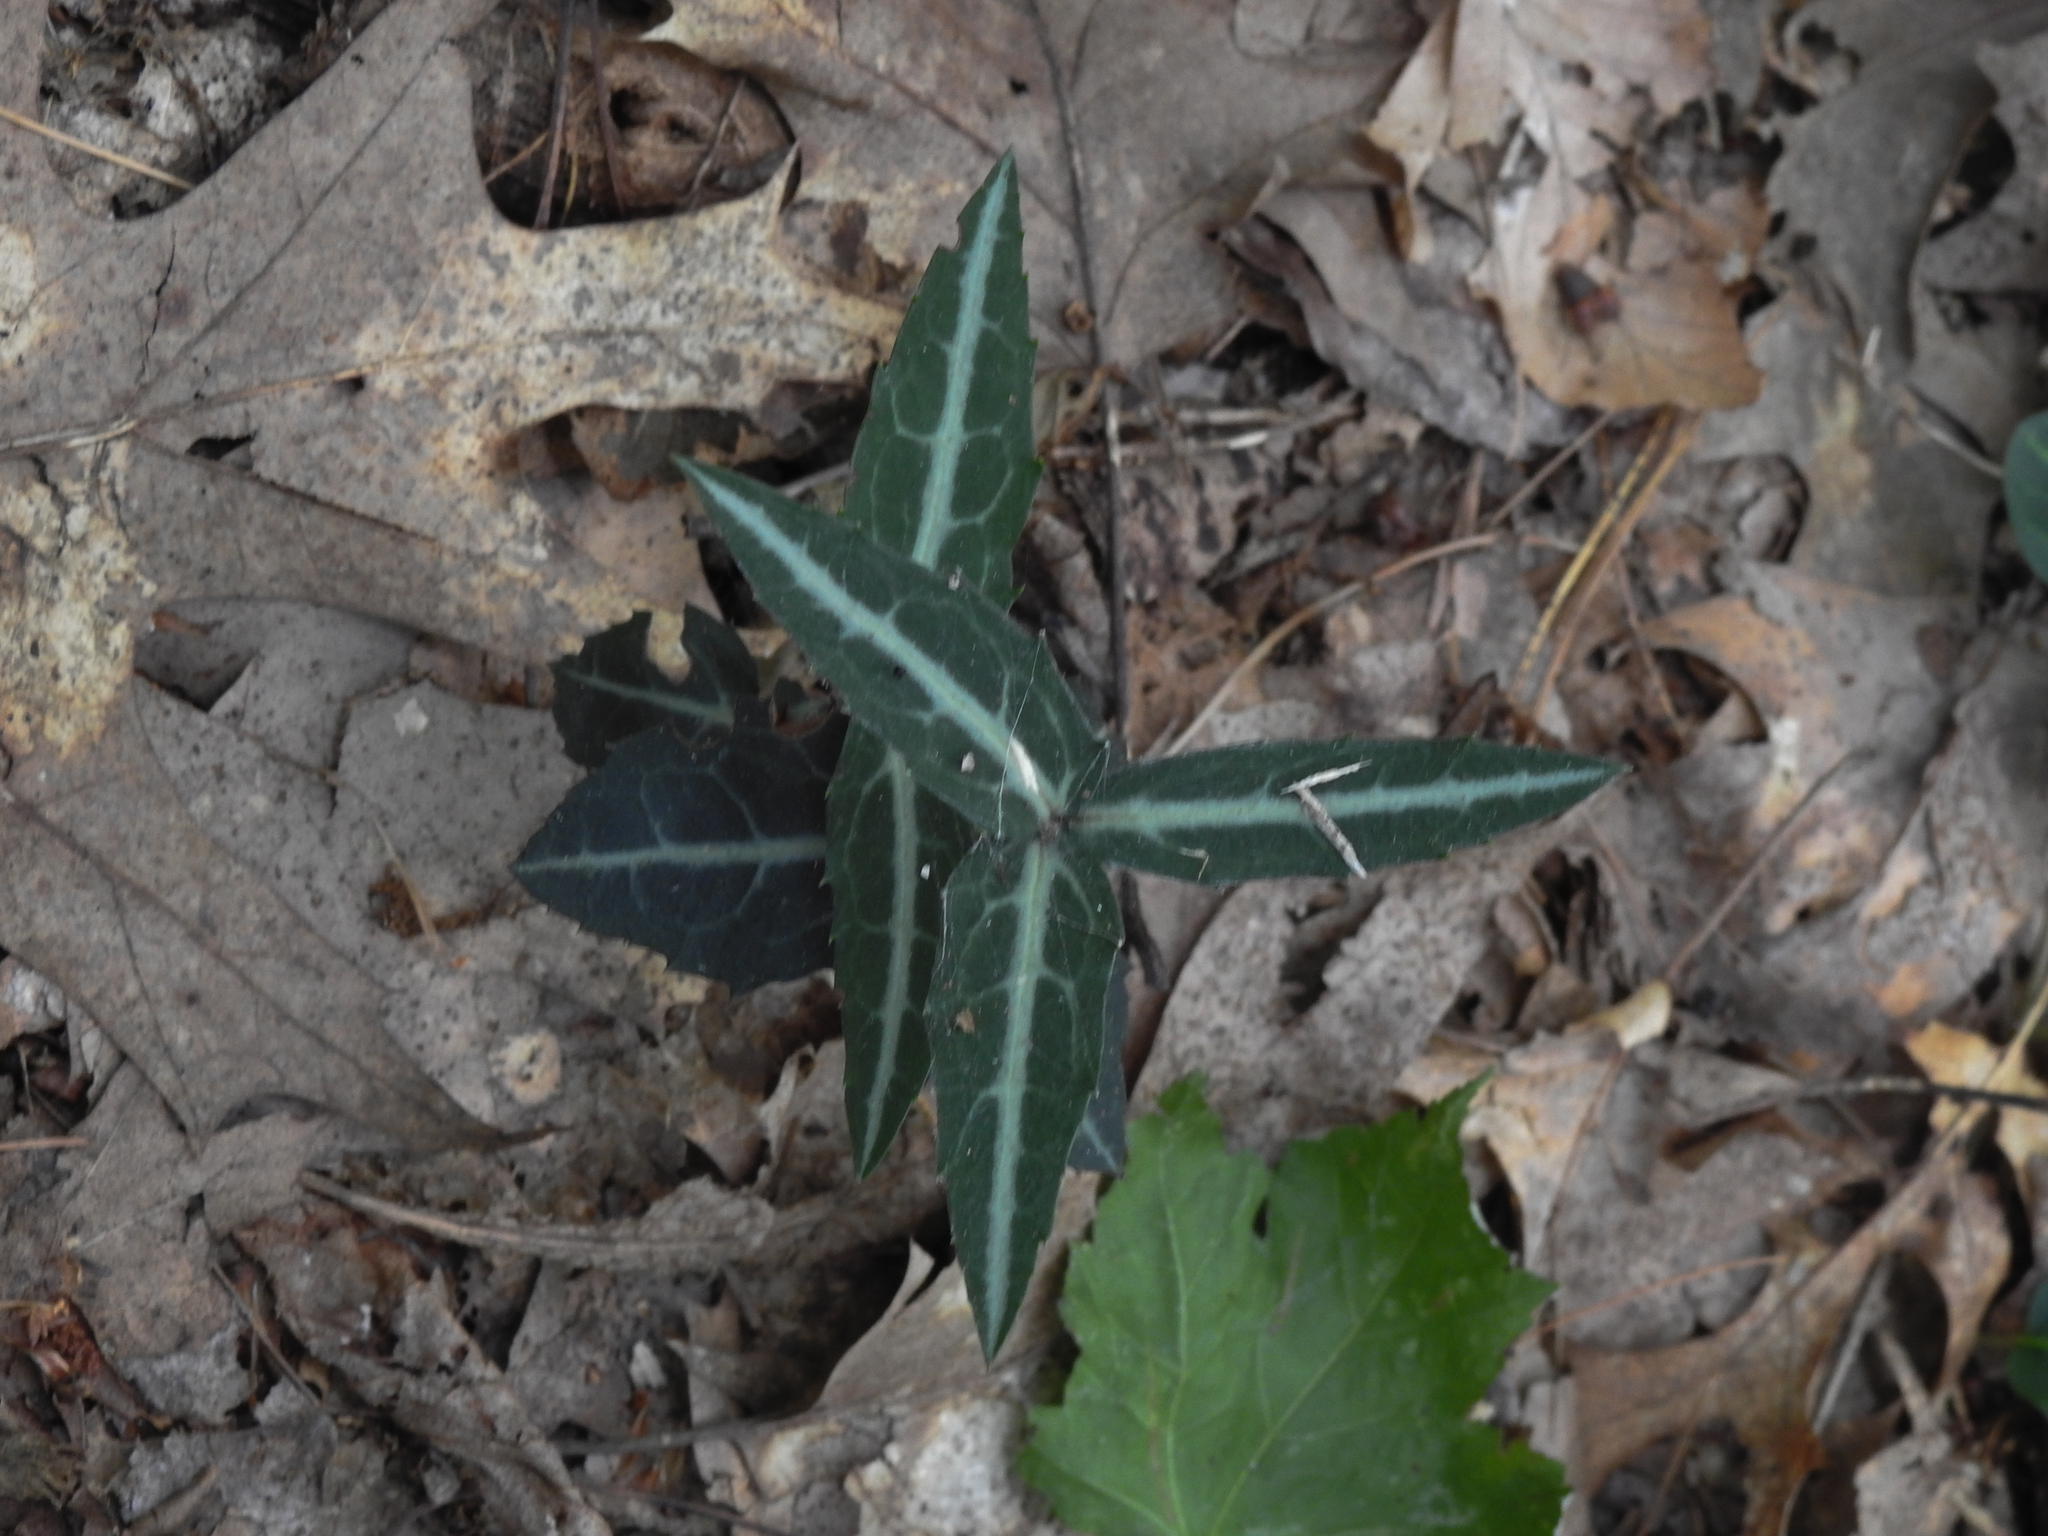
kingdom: Plantae
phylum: Tracheophyta
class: Magnoliopsida
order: Ericales
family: Ericaceae
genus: Chimaphila
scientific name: Chimaphila maculata
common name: Spotted pipsissewa
